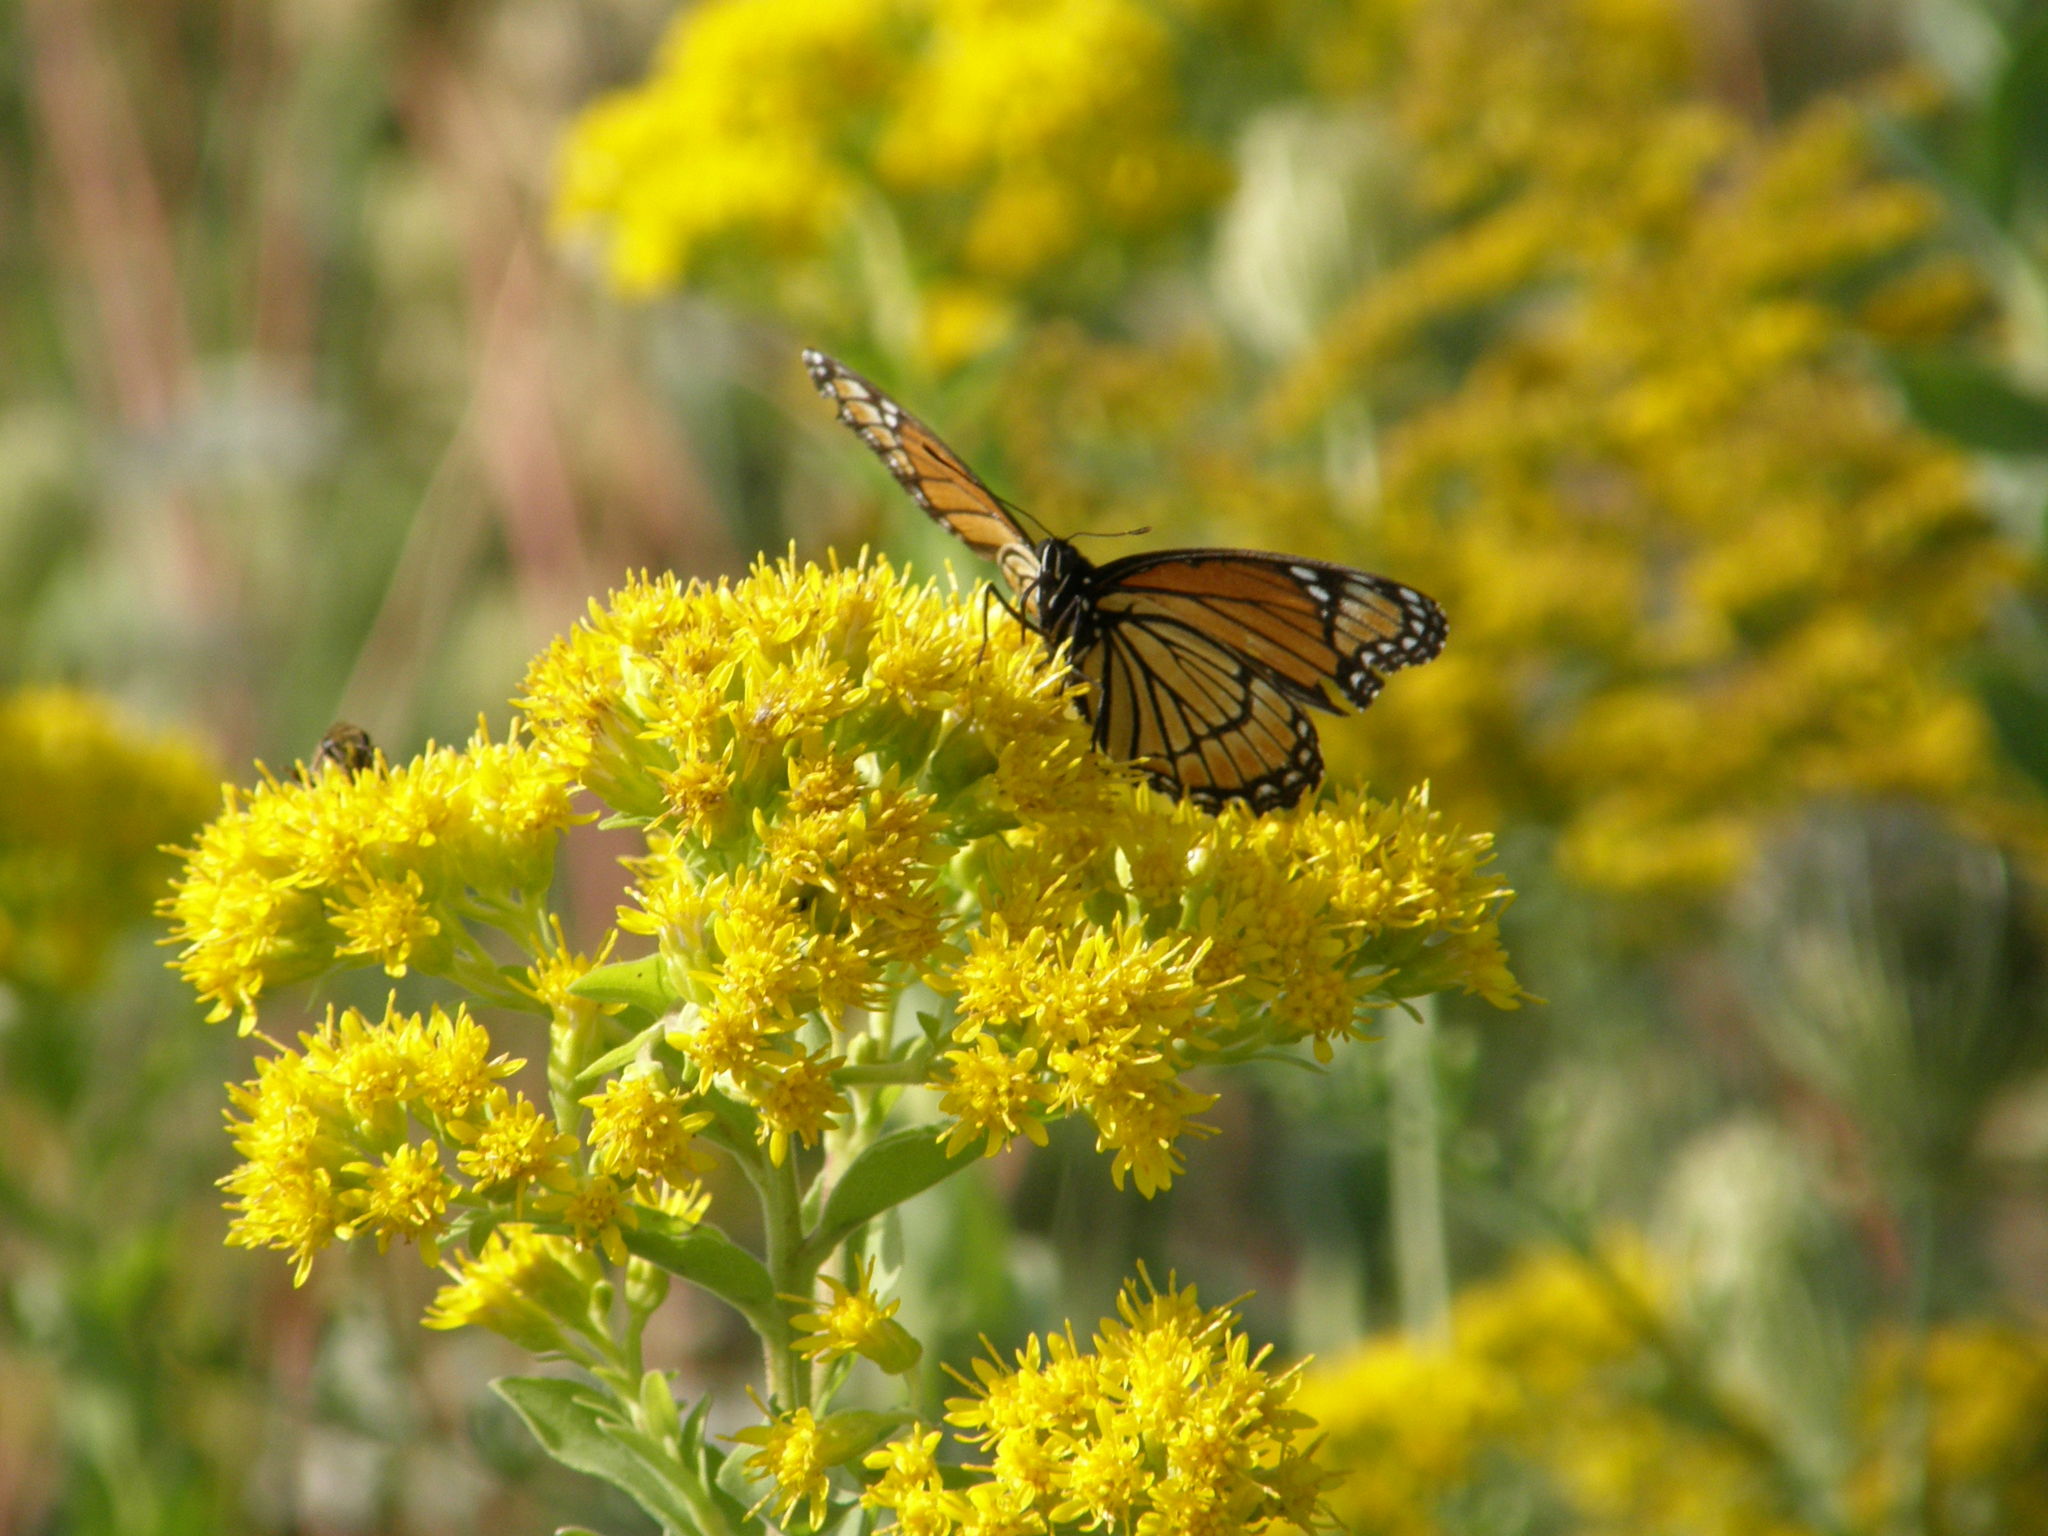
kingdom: Animalia
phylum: Arthropoda
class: Insecta
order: Lepidoptera
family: Nymphalidae
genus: Limenitis
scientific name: Limenitis archippus
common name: Viceroy
